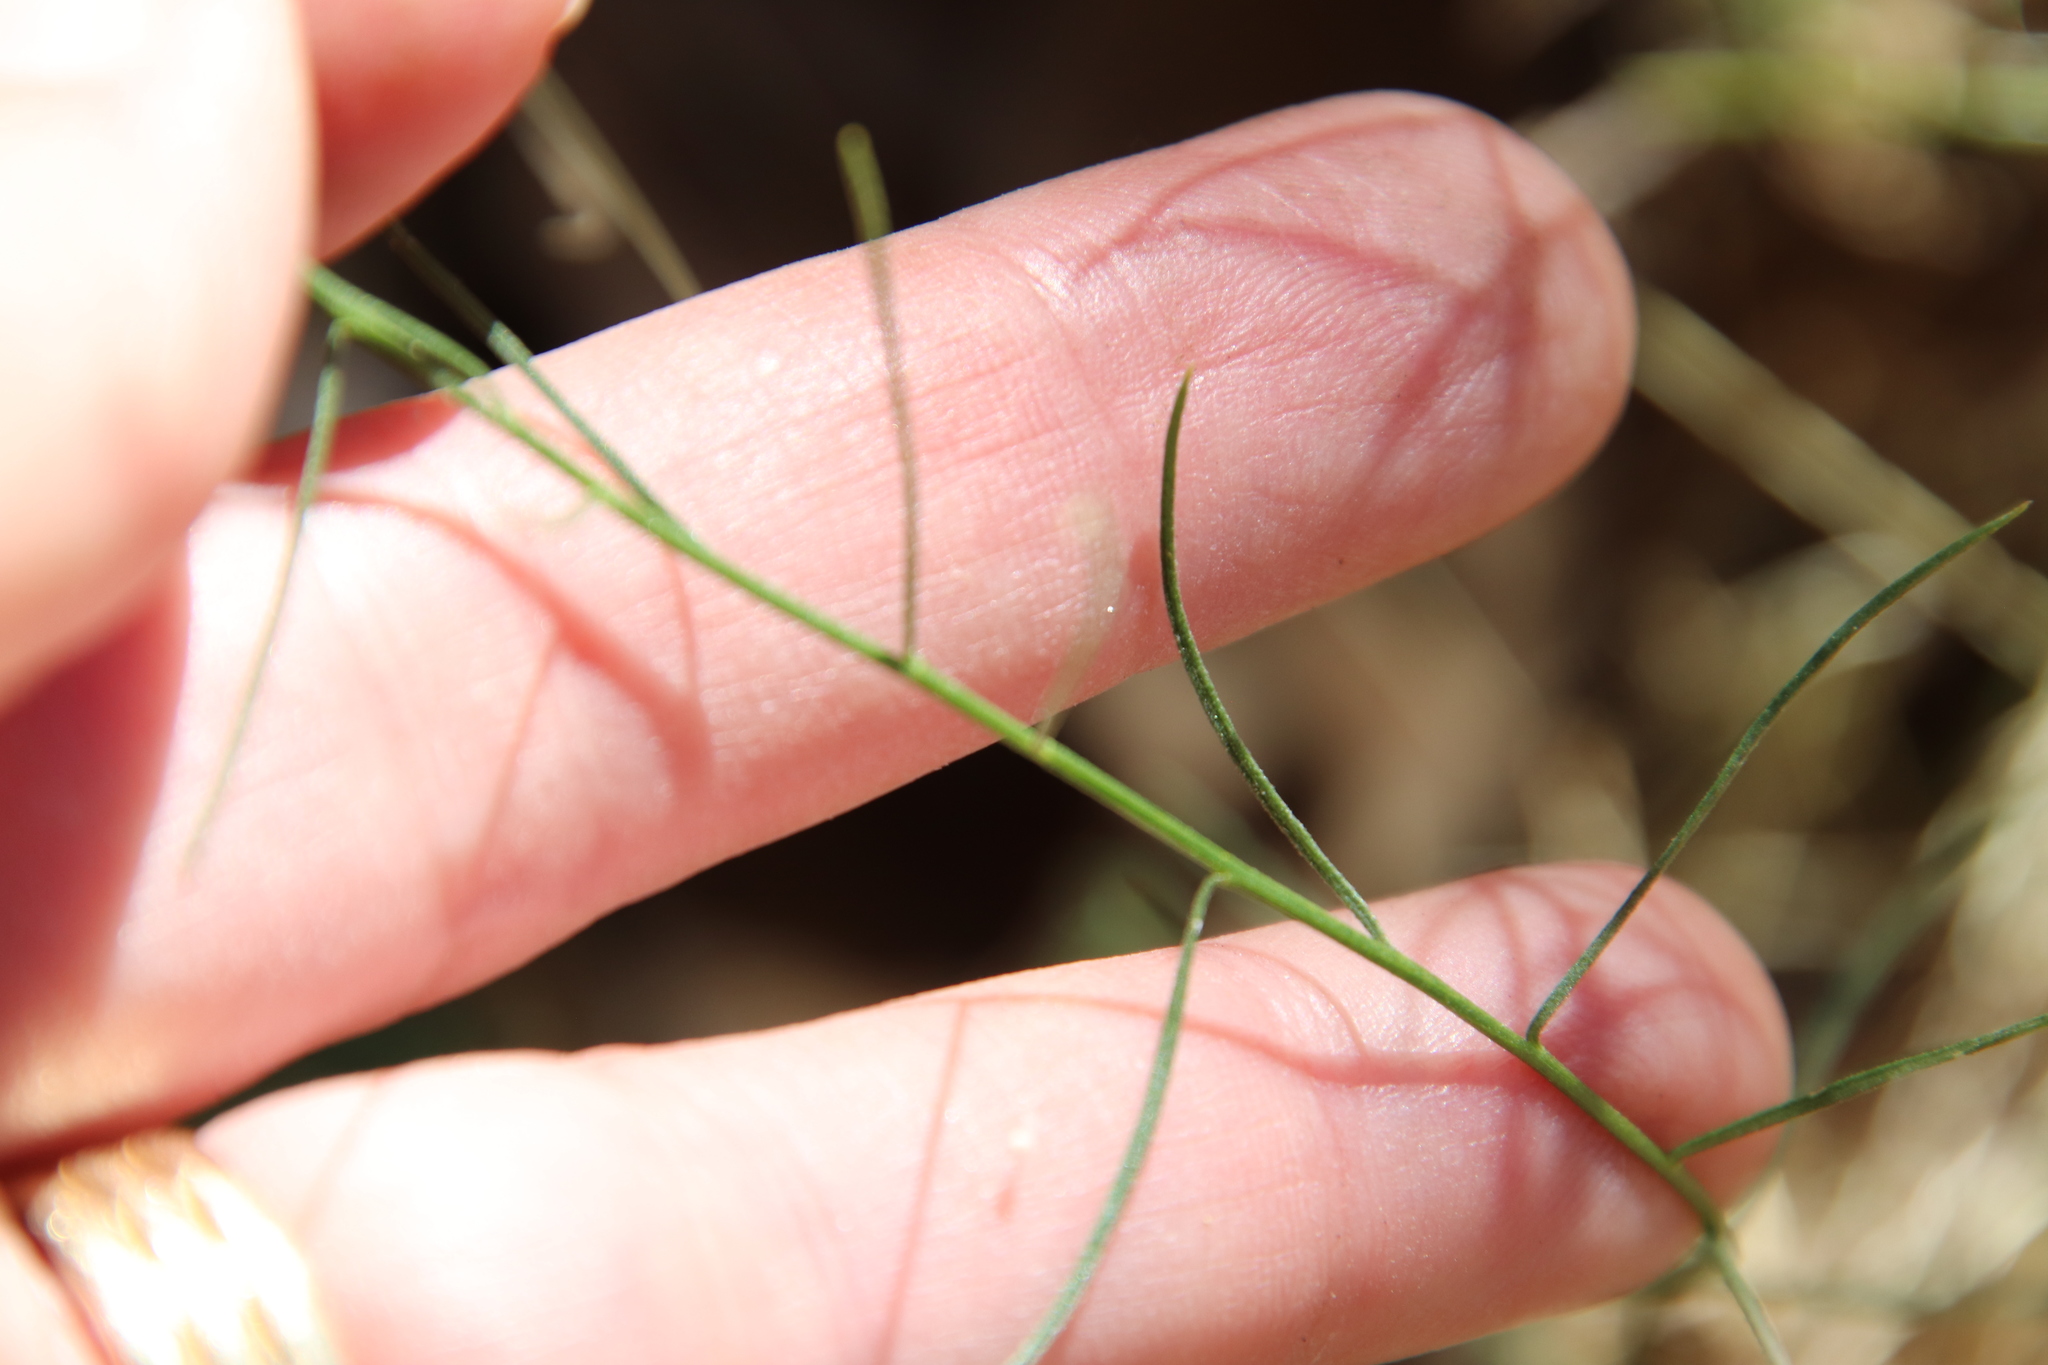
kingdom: Plantae
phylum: Tracheophyta
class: Magnoliopsida
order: Asterales
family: Asteraceae
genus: Gutierrezia
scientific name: Gutierrezia sarothrae
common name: Broom snakeweed
